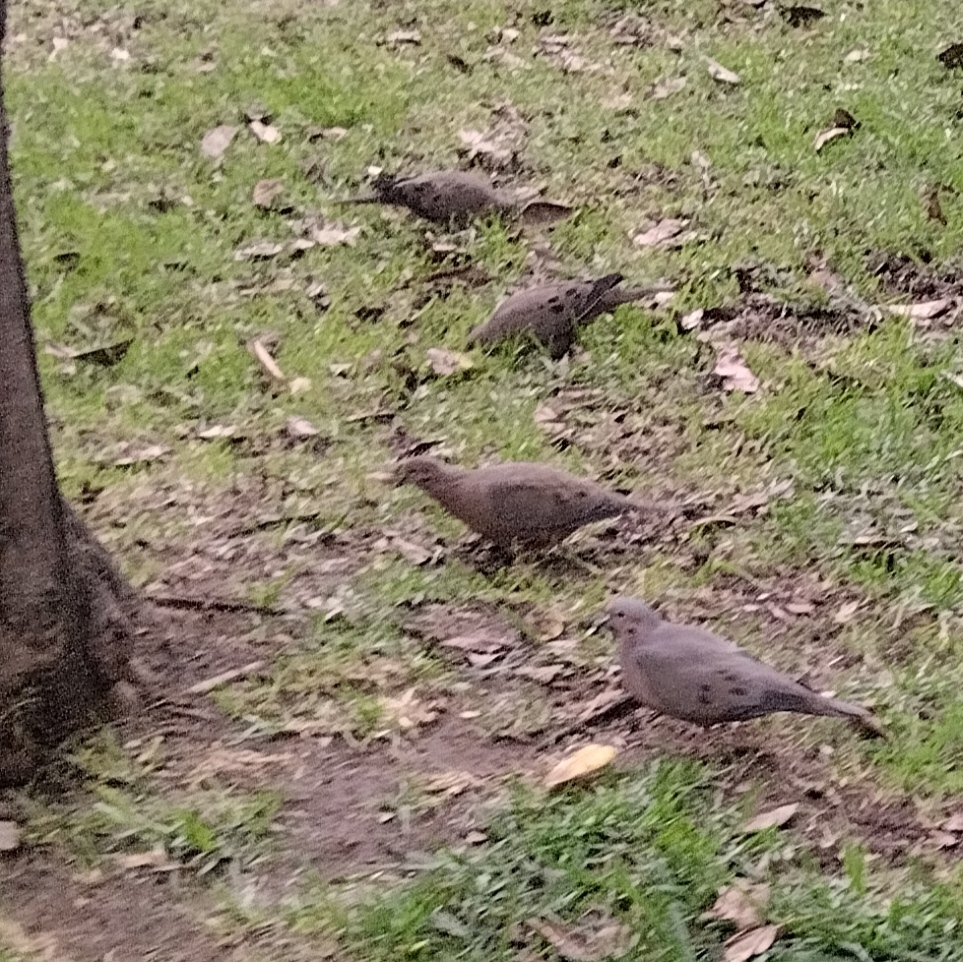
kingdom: Animalia
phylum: Chordata
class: Aves
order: Columbiformes
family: Columbidae
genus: Zenaida
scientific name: Zenaida auriculata
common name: Eared dove
